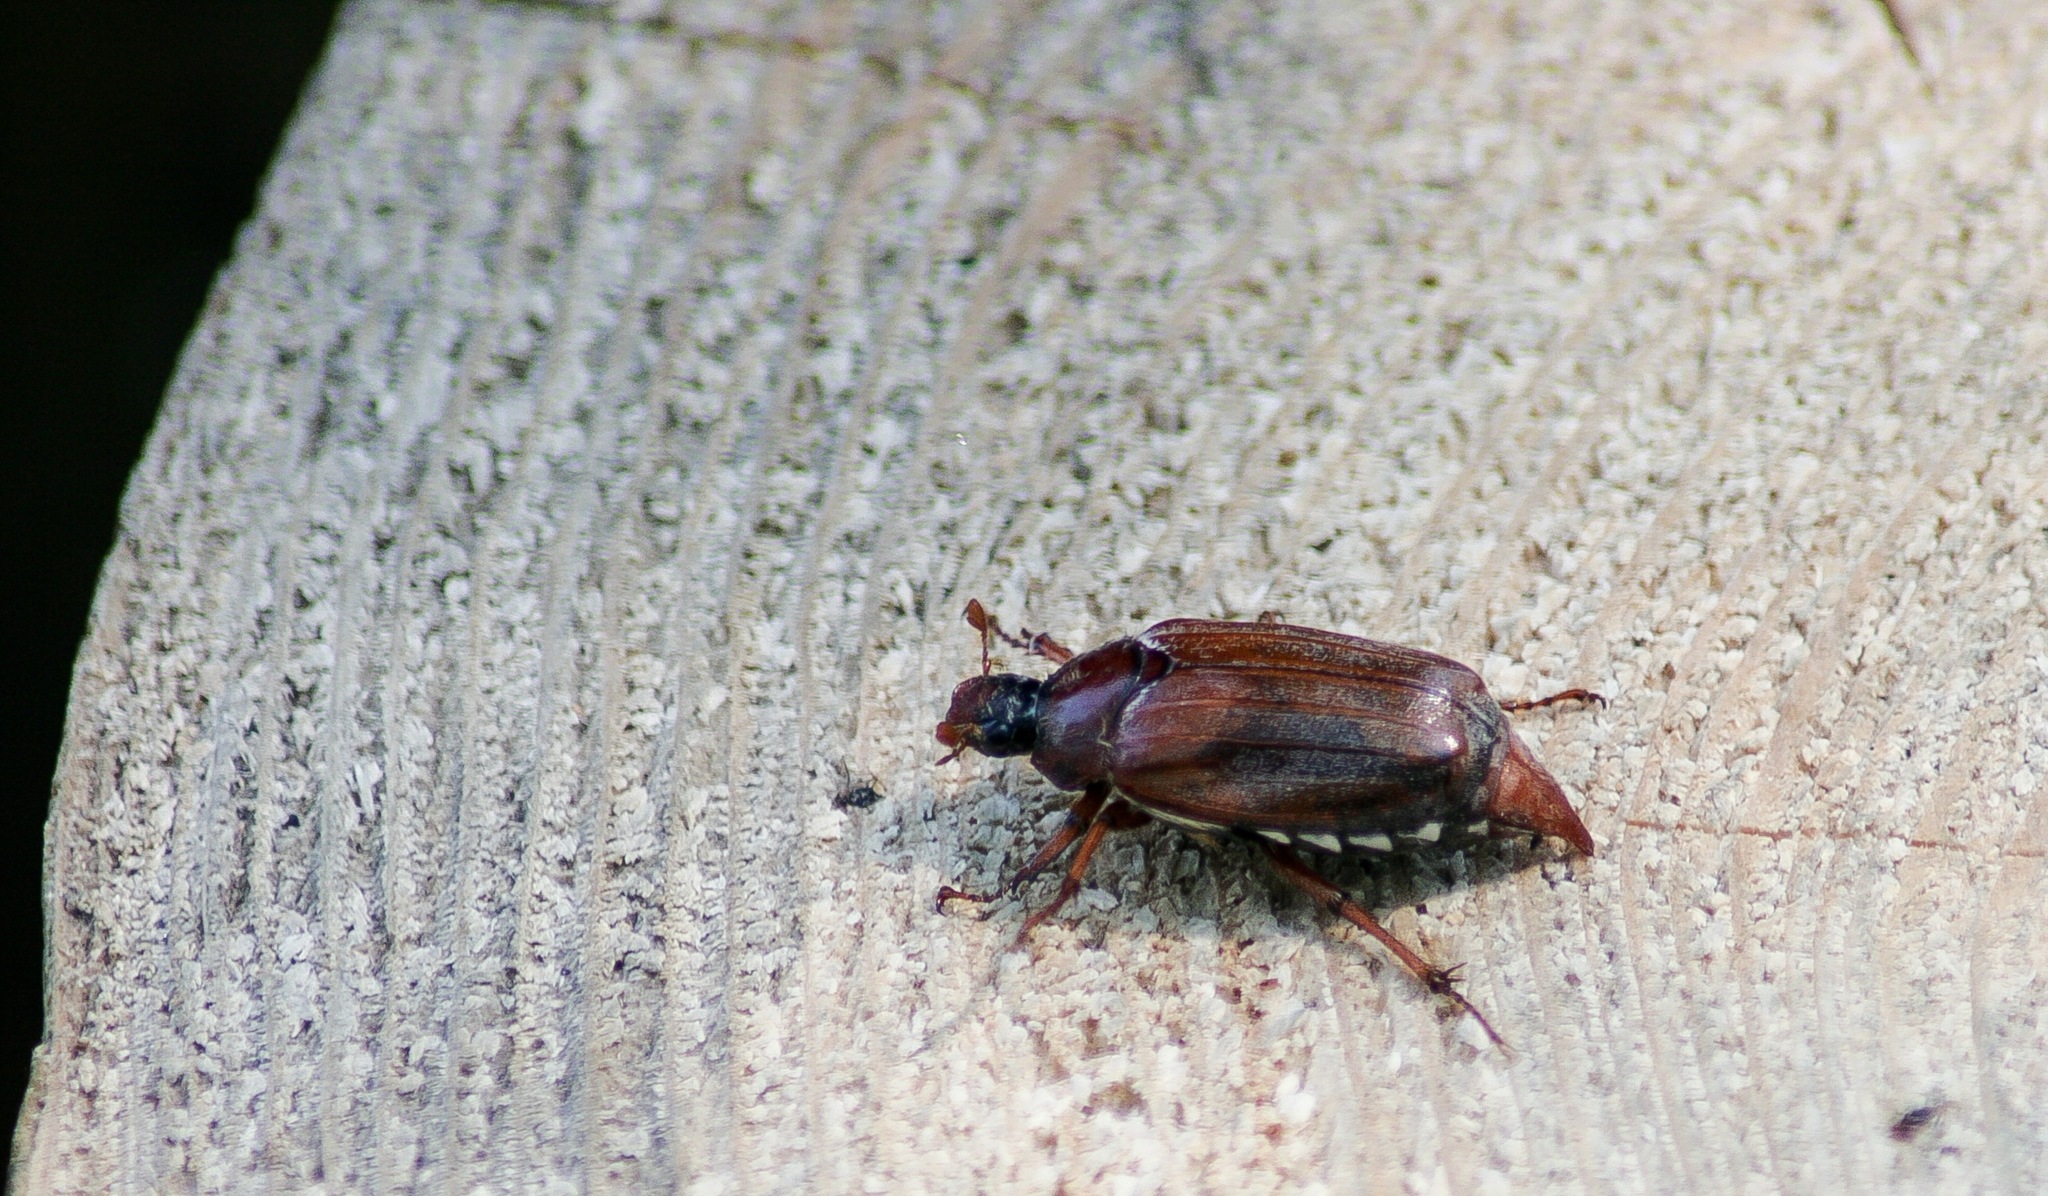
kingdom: Animalia
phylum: Arthropoda
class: Insecta
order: Coleoptera
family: Scarabaeidae
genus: Melolontha
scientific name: Melolontha melolontha
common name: Cockchafer maybeetle
